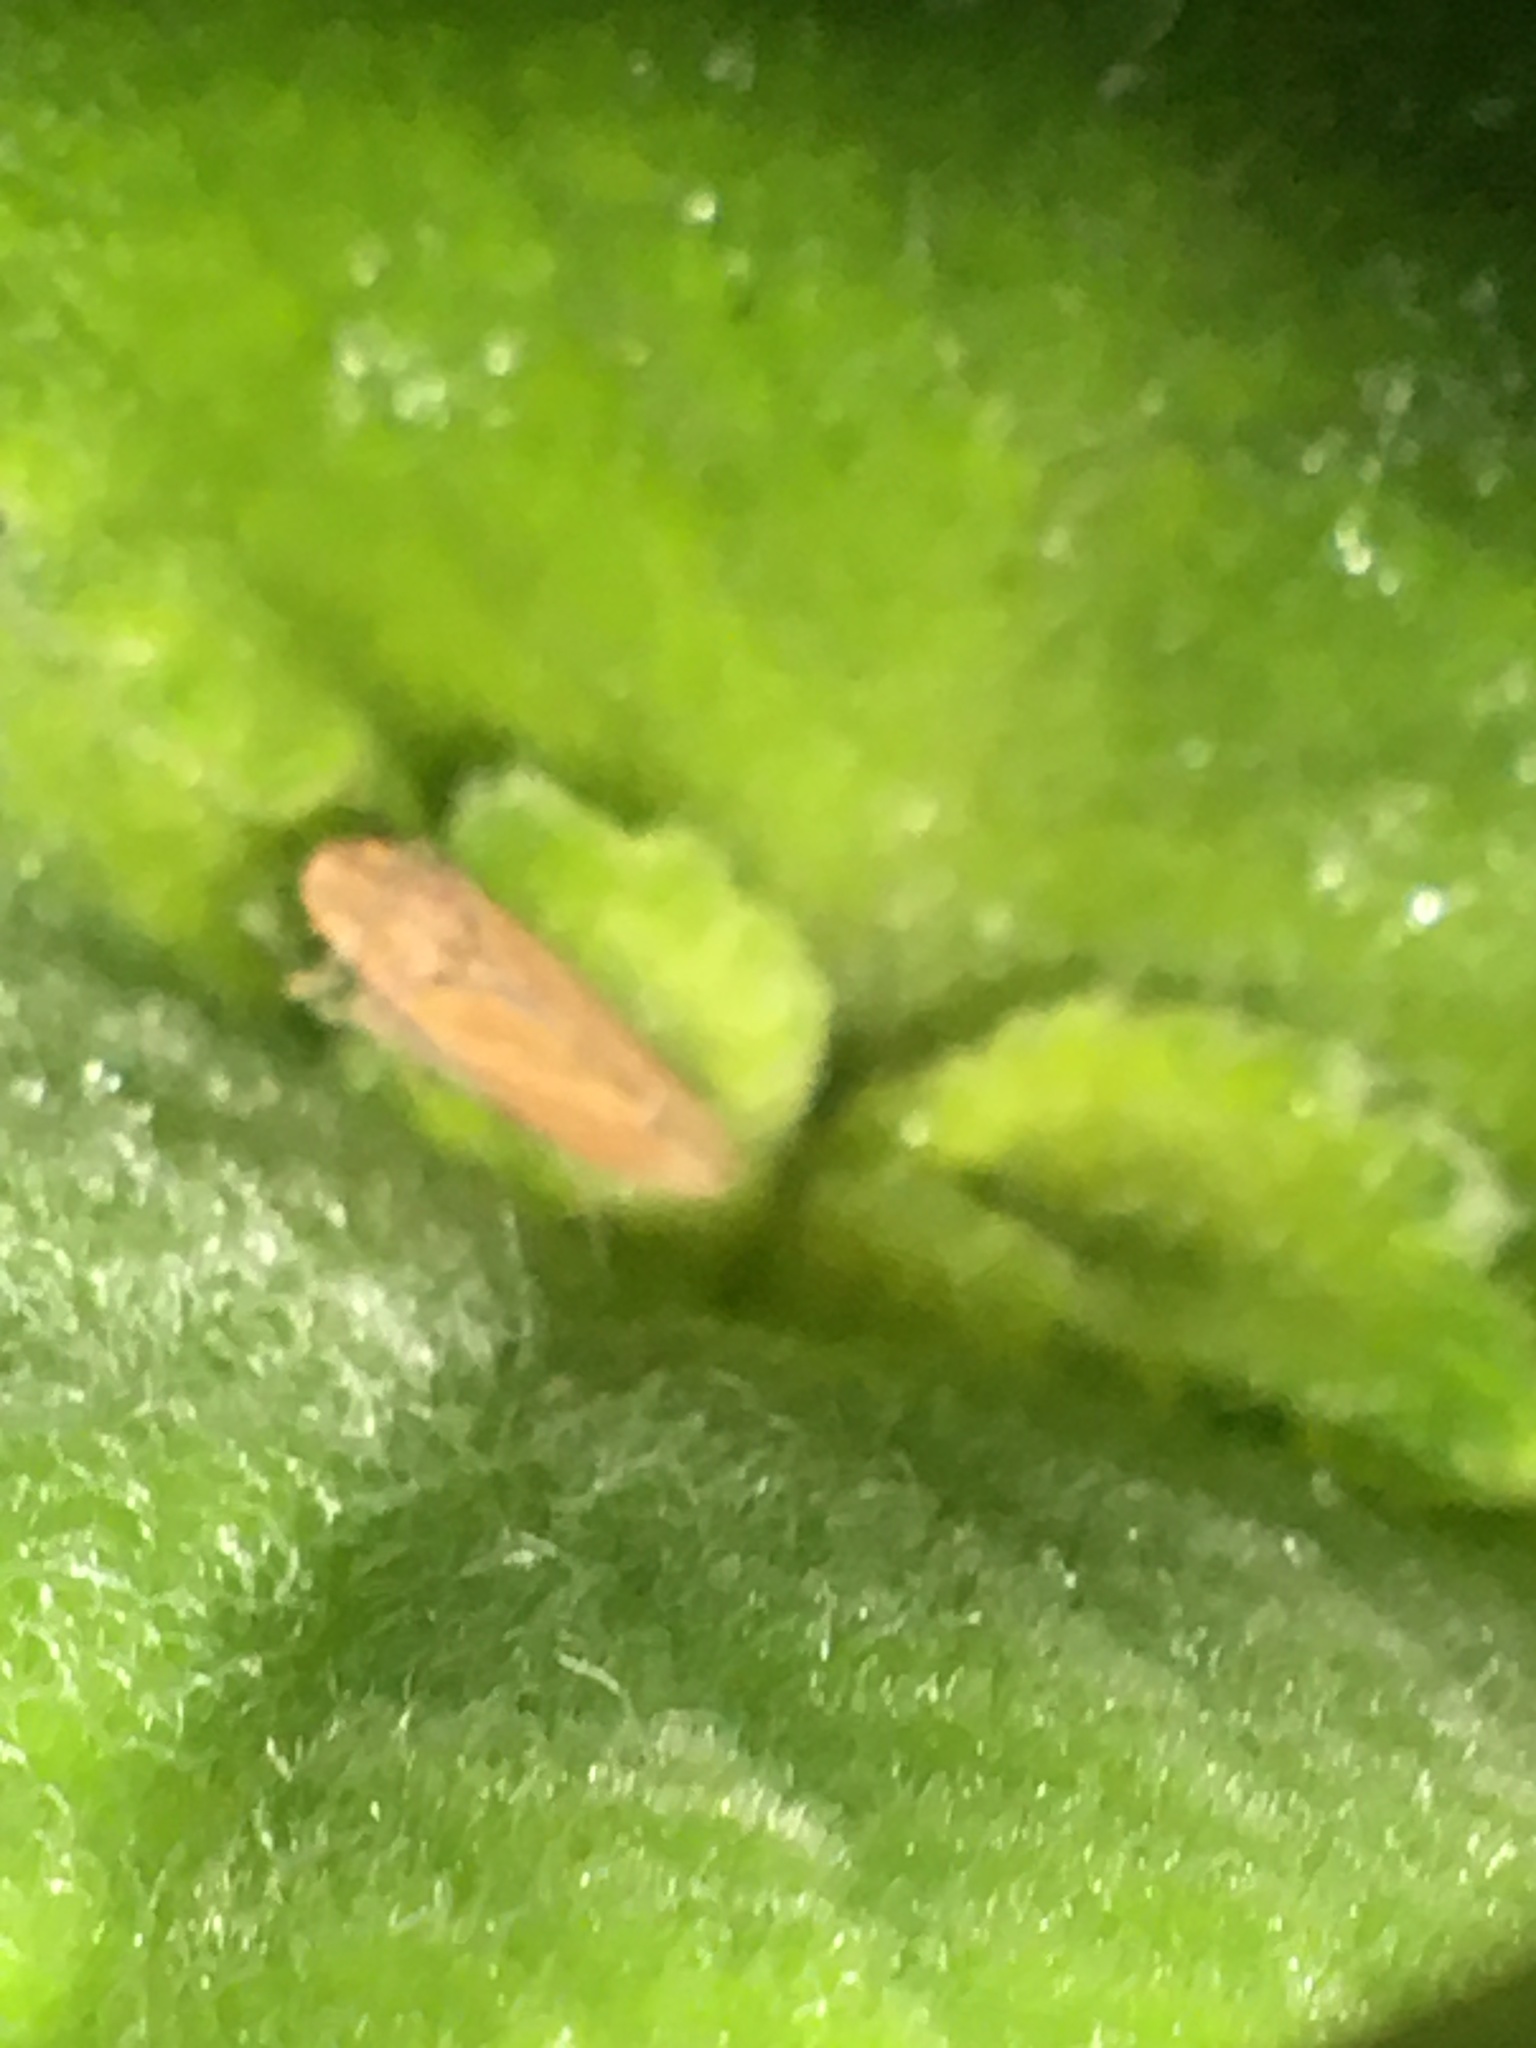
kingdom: Animalia
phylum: Arthropoda
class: Insecta
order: Hemiptera
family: Cicadellidae
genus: Neokolla
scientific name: Neokolla hieroglyphica
